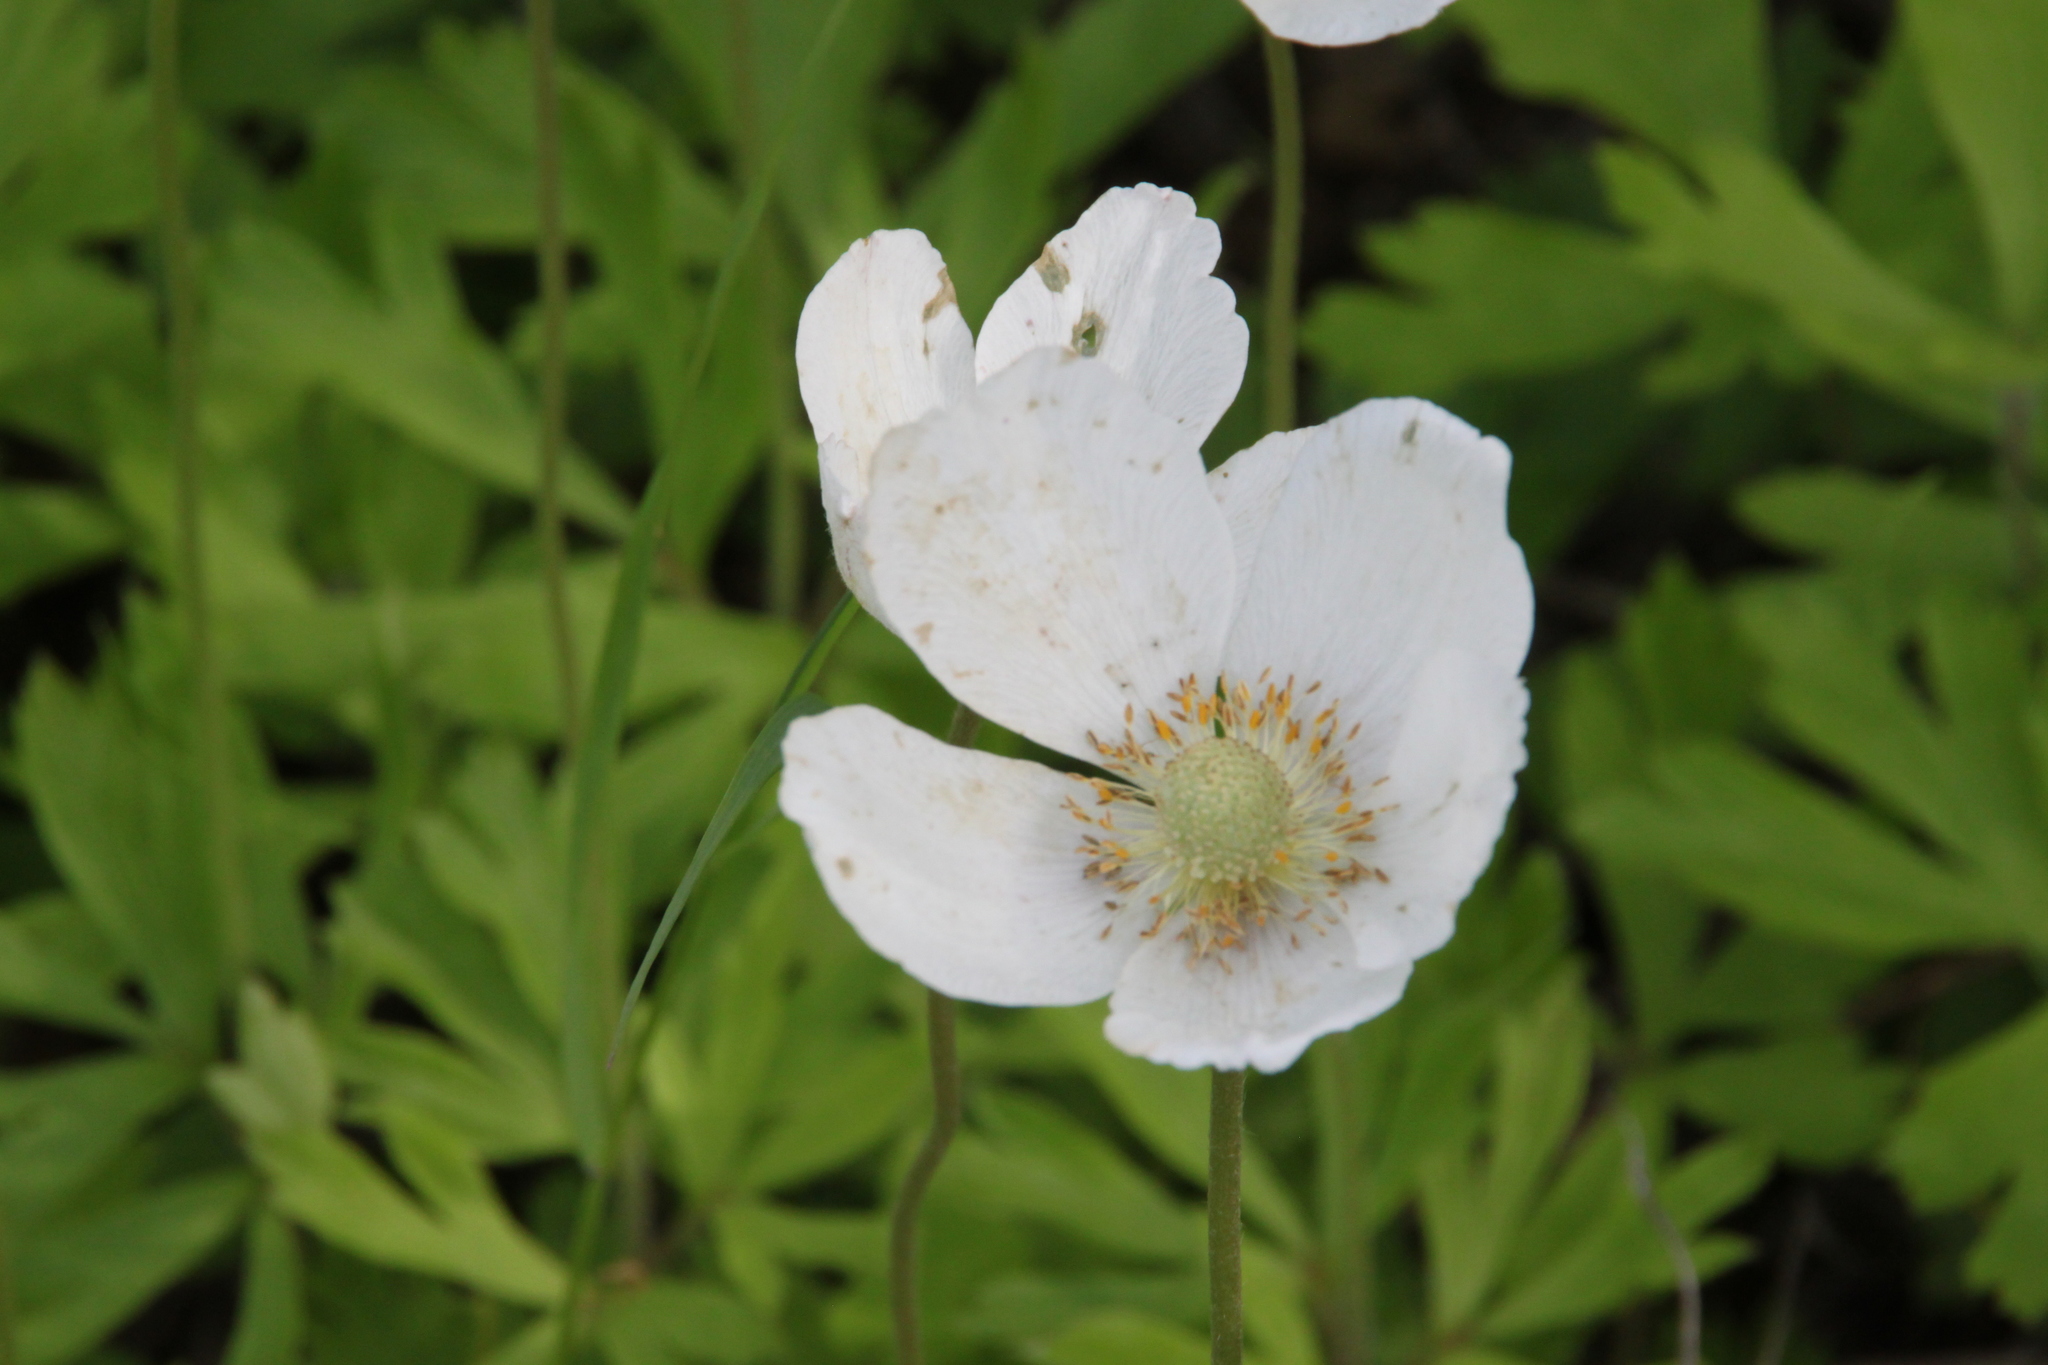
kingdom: Plantae
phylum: Tracheophyta
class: Magnoliopsida
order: Ranunculales
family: Ranunculaceae
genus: Anemone
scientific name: Anemone sylvestris
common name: Snowdrop anemone
